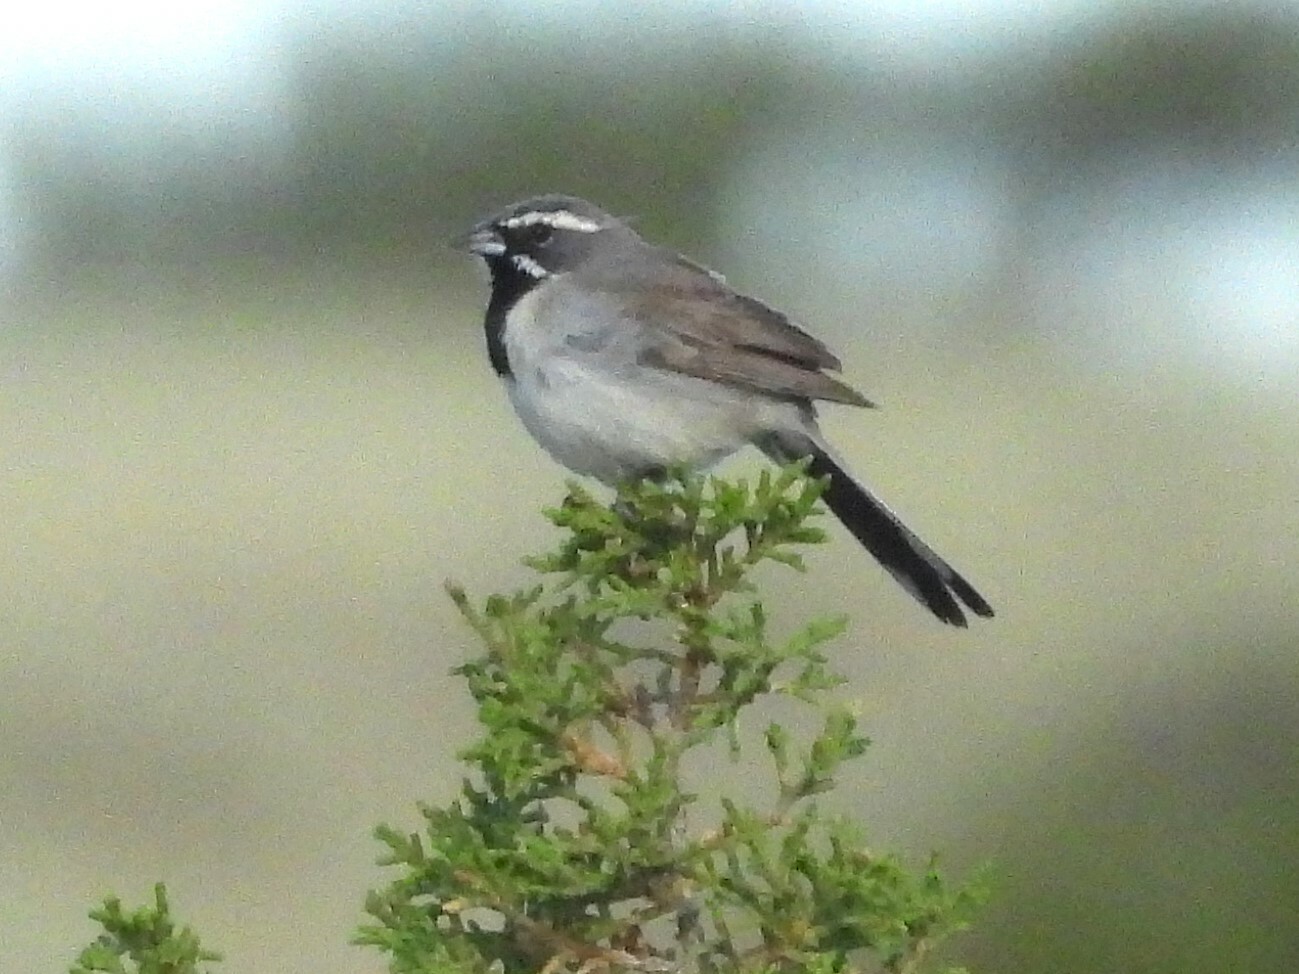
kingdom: Animalia
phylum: Chordata
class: Aves
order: Passeriformes
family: Passerellidae
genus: Amphispiza
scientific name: Amphispiza bilineata
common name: Black-throated sparrow
